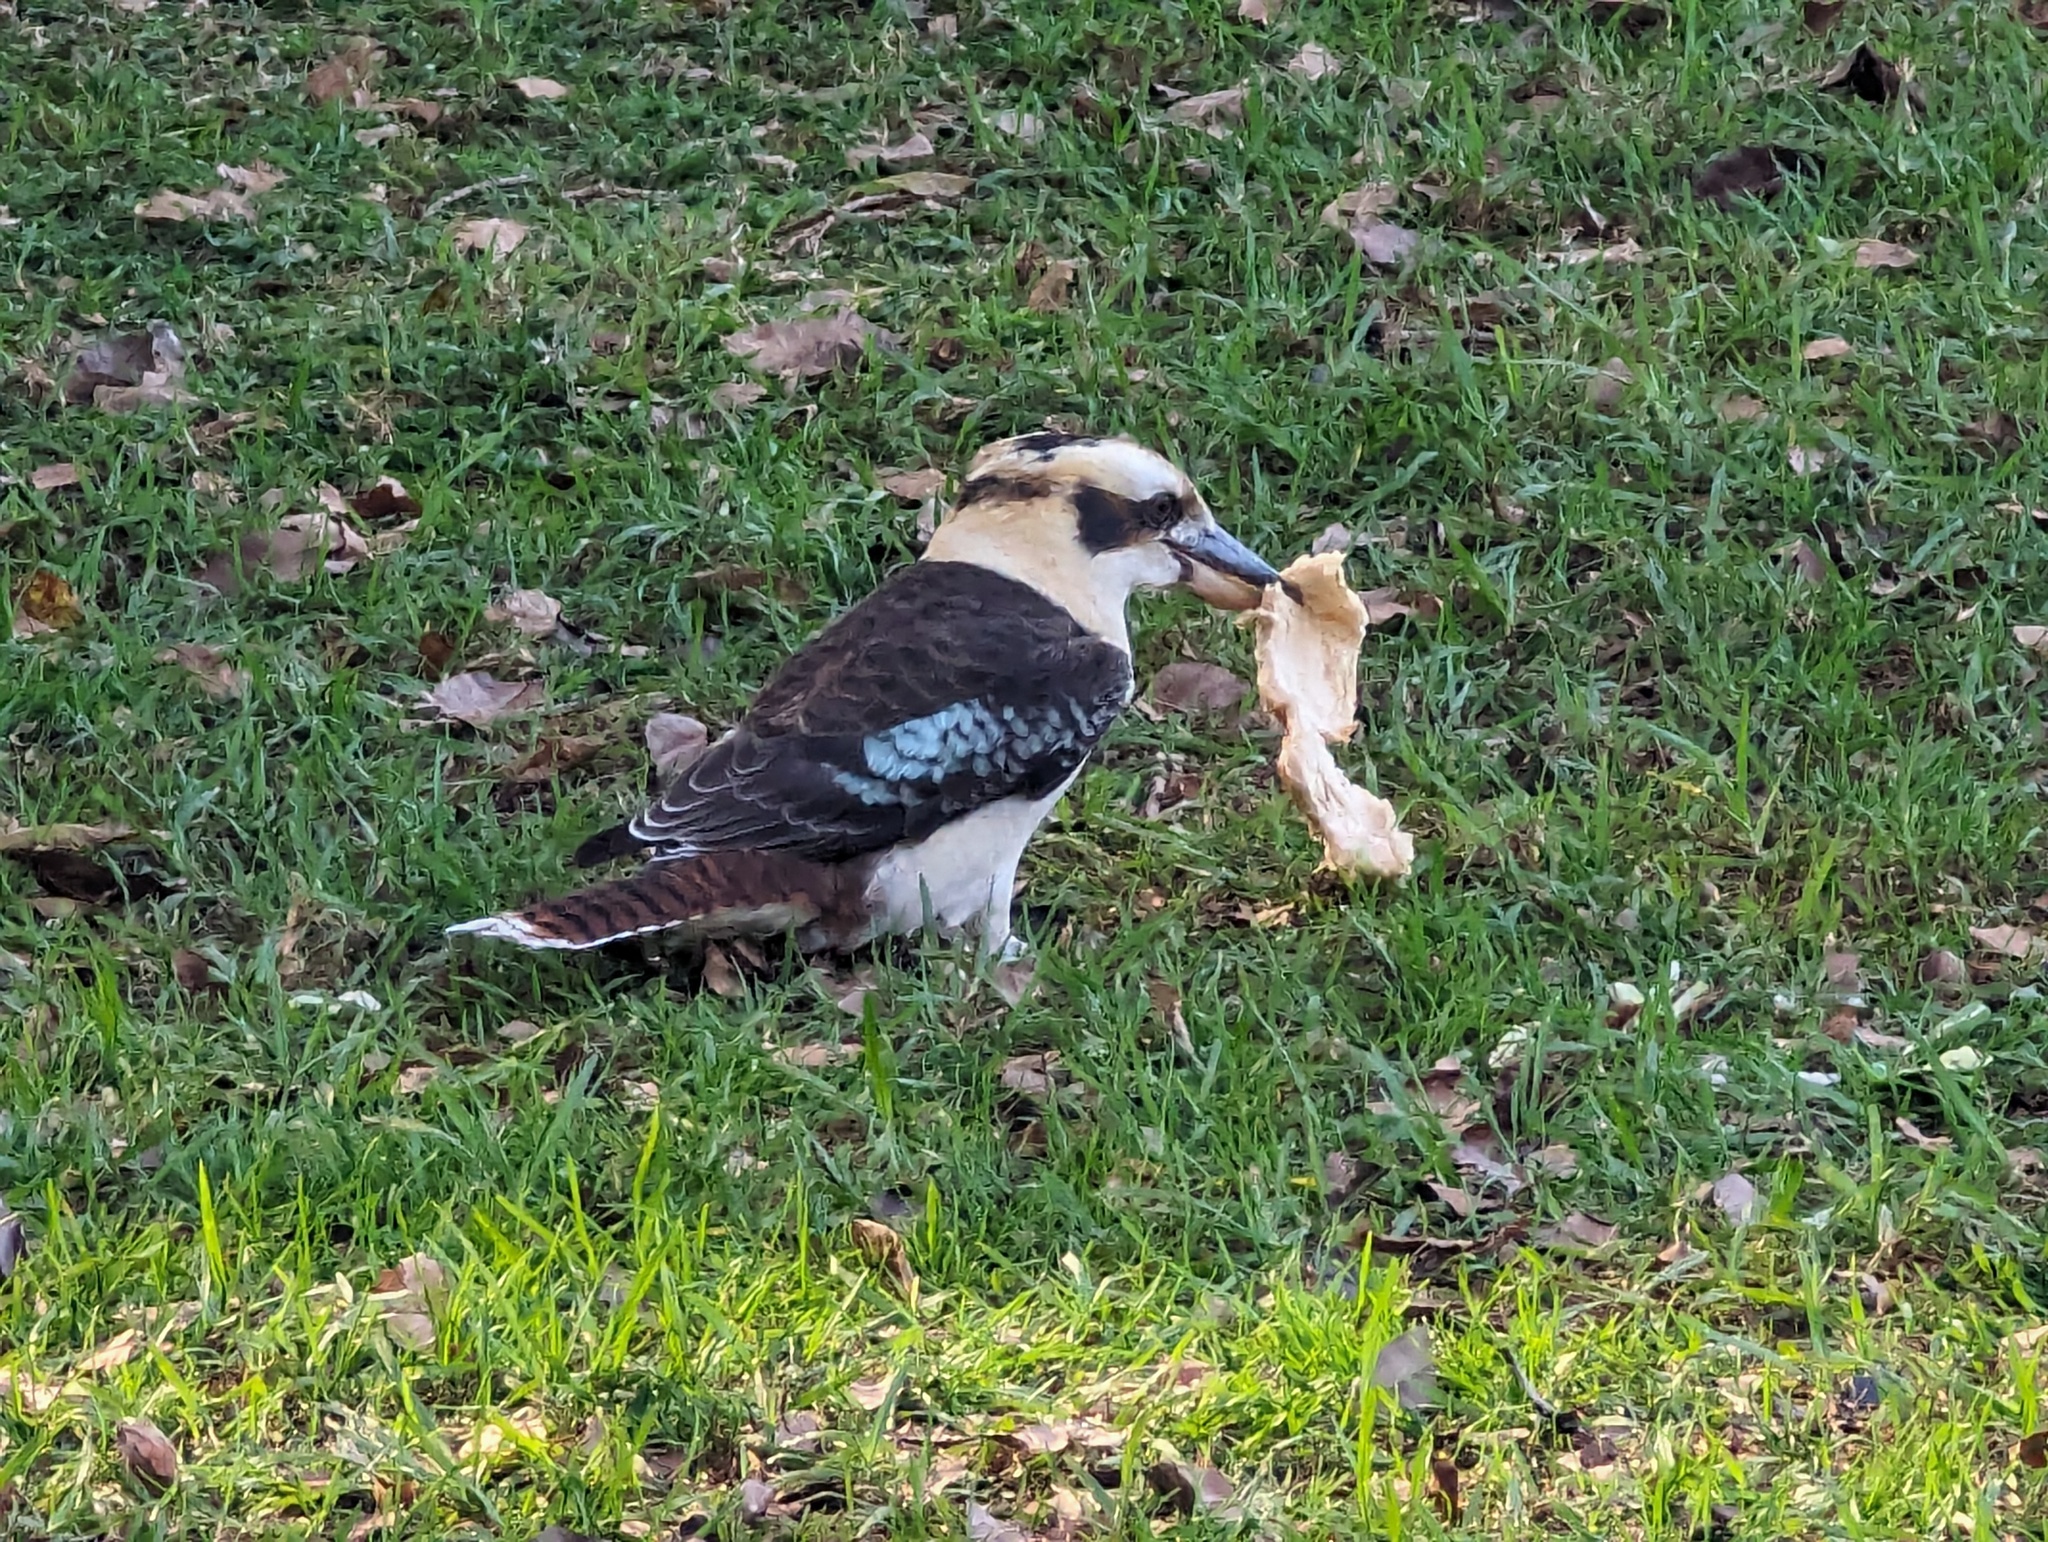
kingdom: Animalia
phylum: Chordata
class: Aves
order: Coraciiformes
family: Alcedinidae
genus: Dacelo
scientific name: Dacelo novaeguineae
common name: Laughing kookaburra
